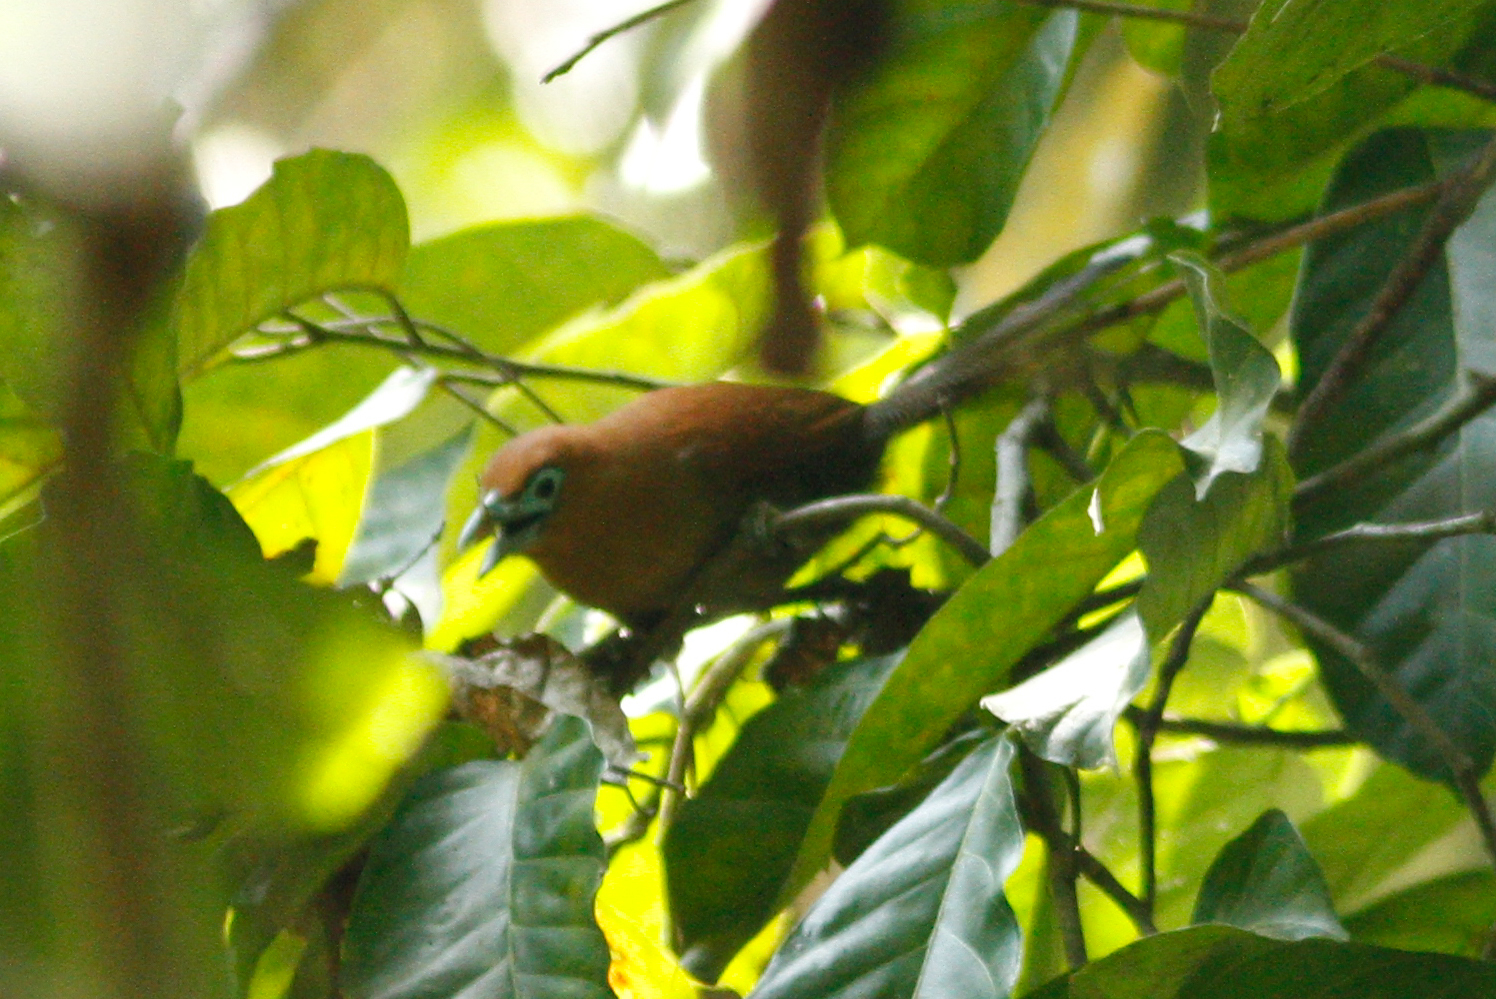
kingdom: Animalia
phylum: Chordata
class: Aves
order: Cuculiformes
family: Cuculidae
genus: Rhinortha
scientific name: Rhinortha chlorophaea
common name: Raffles's malkoha
